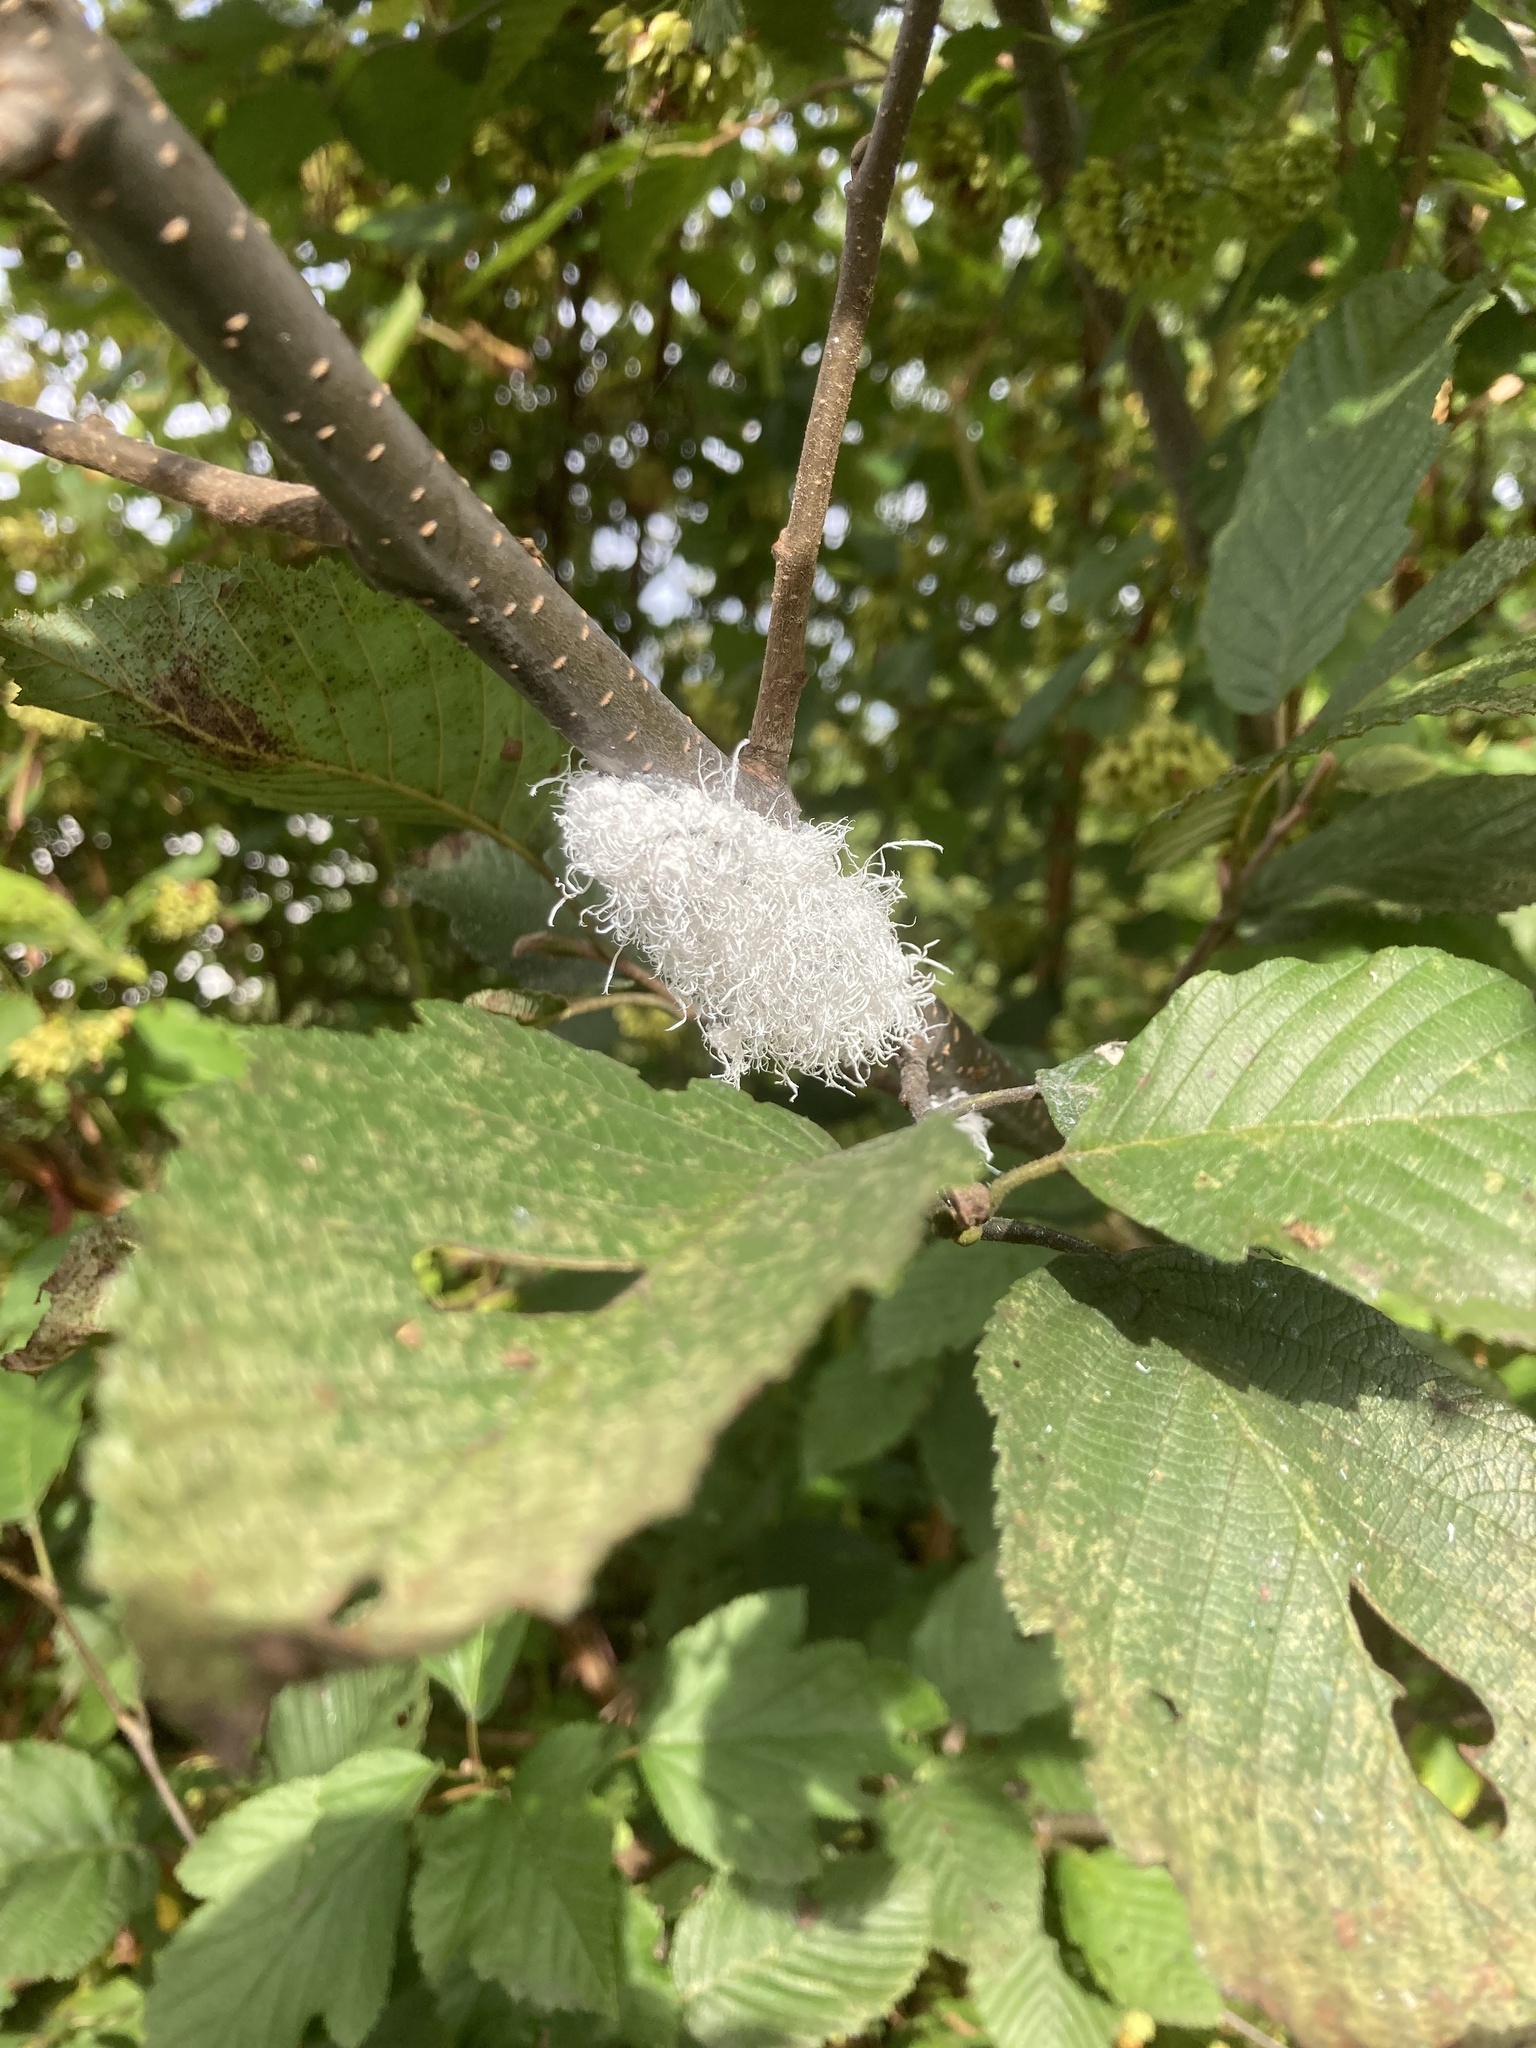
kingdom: Animalia
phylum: Arthropoda
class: Insecta
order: Hemiptera
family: Aphididae
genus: Prociphilus
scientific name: Prociphilus tessellatus
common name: Woolly alder aphid
